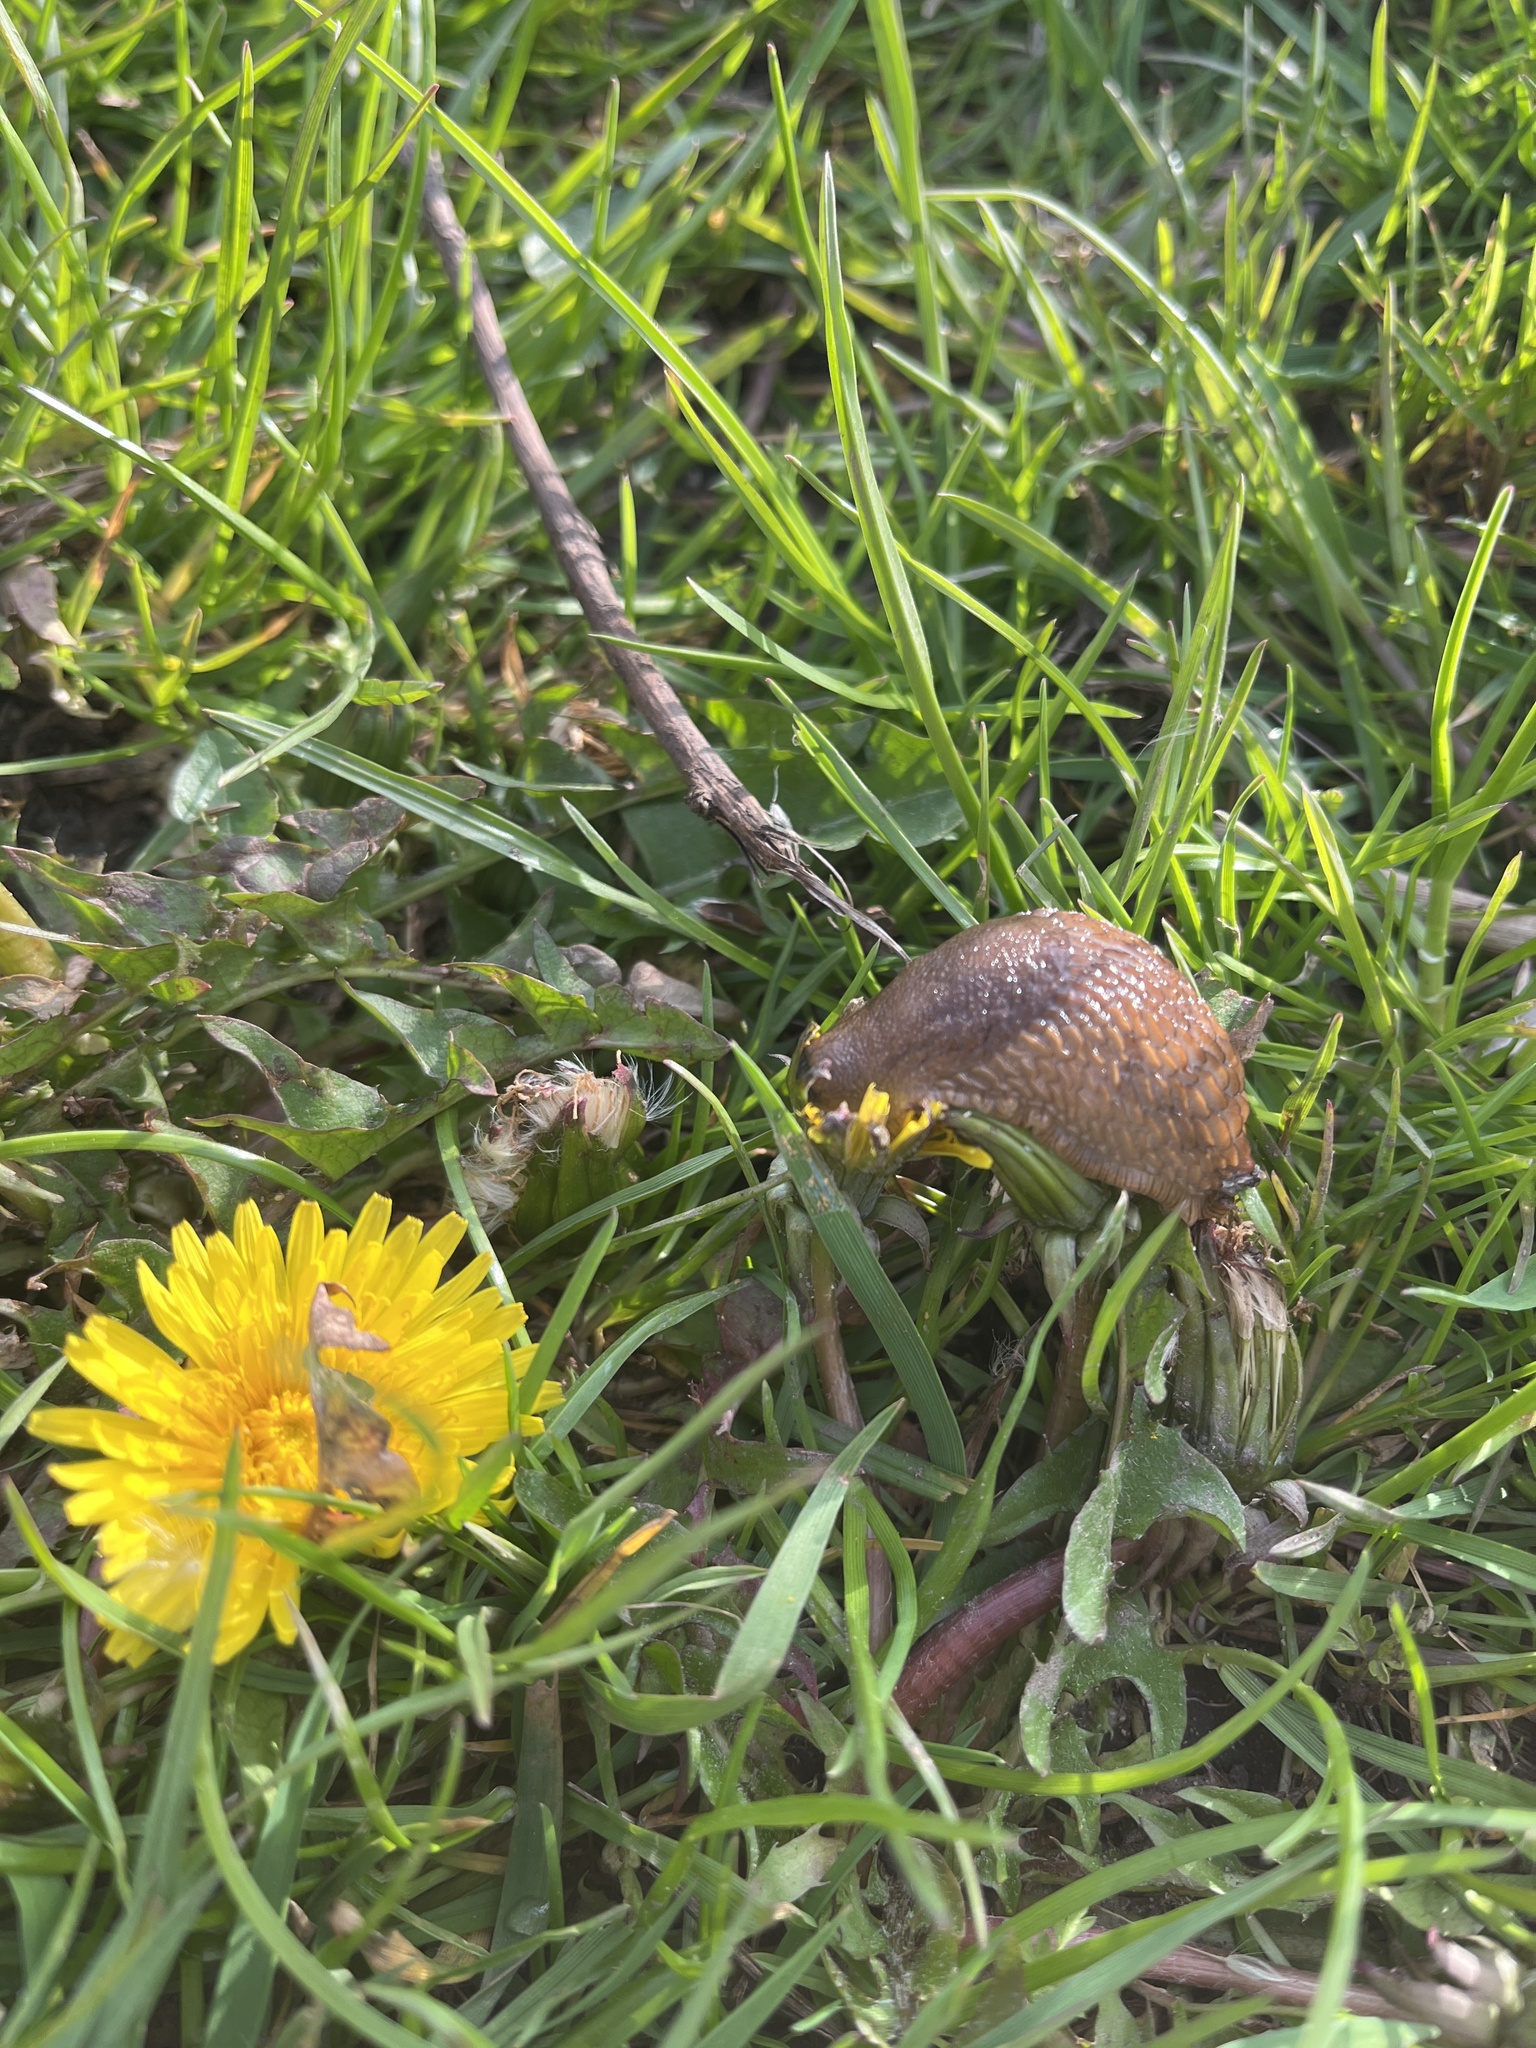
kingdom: Animalia
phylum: Mollusca
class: Gastropoda
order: Stylommatophora
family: Arionidae
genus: Arion
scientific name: Arion
